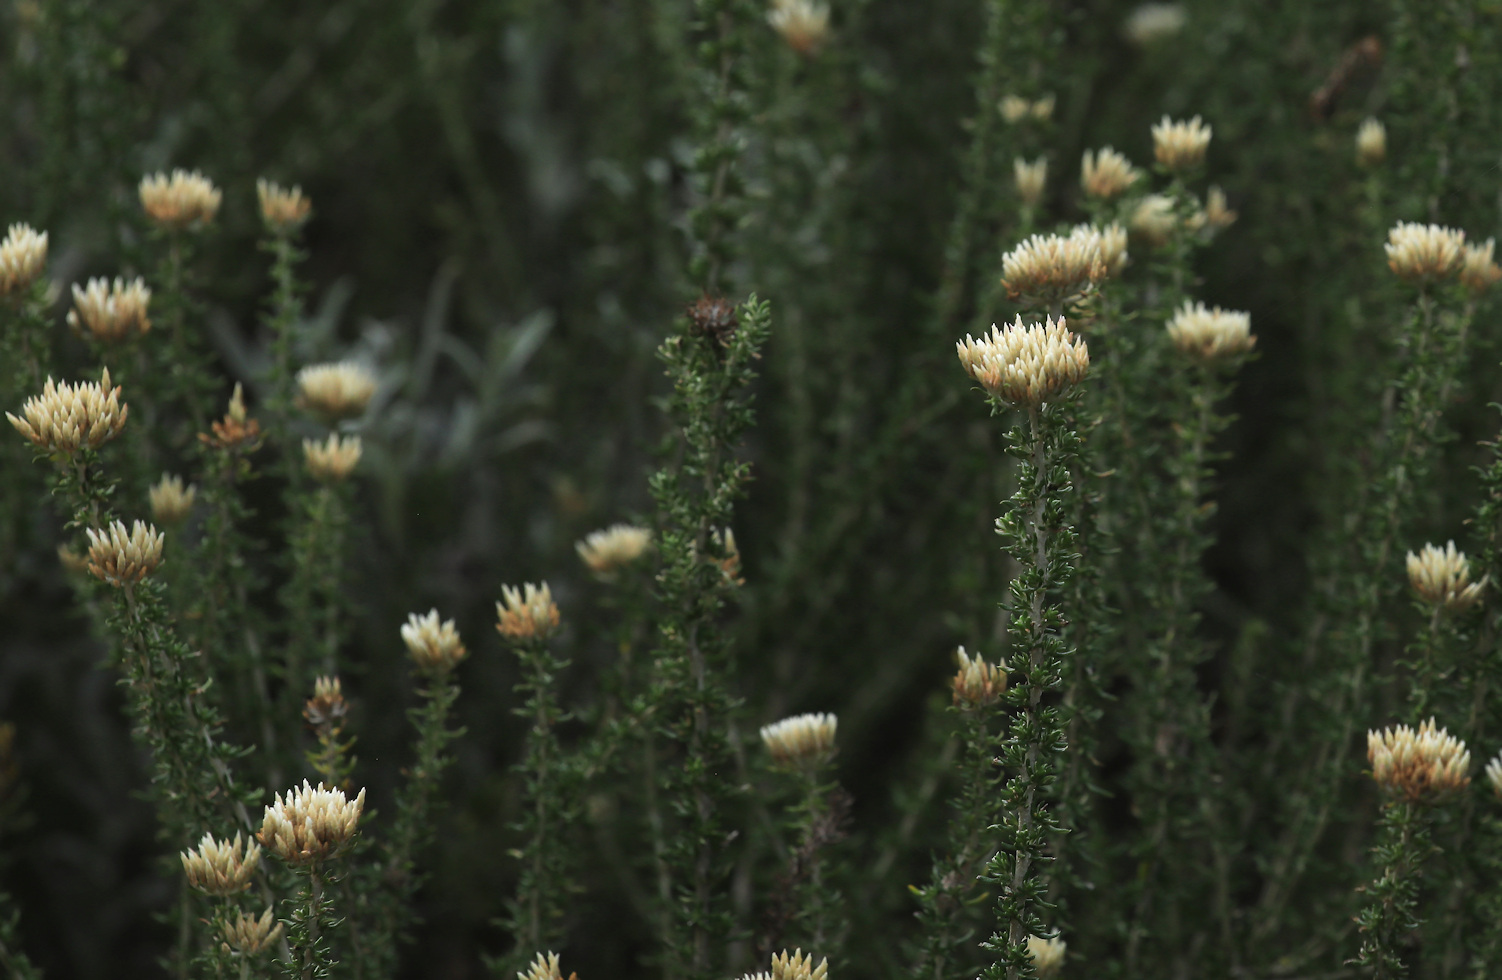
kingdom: Plantae
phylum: Tracheophyta
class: Magnoliopsida
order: Asterales
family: Asteraceae
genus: Metalasia
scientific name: Metalasia muricata
